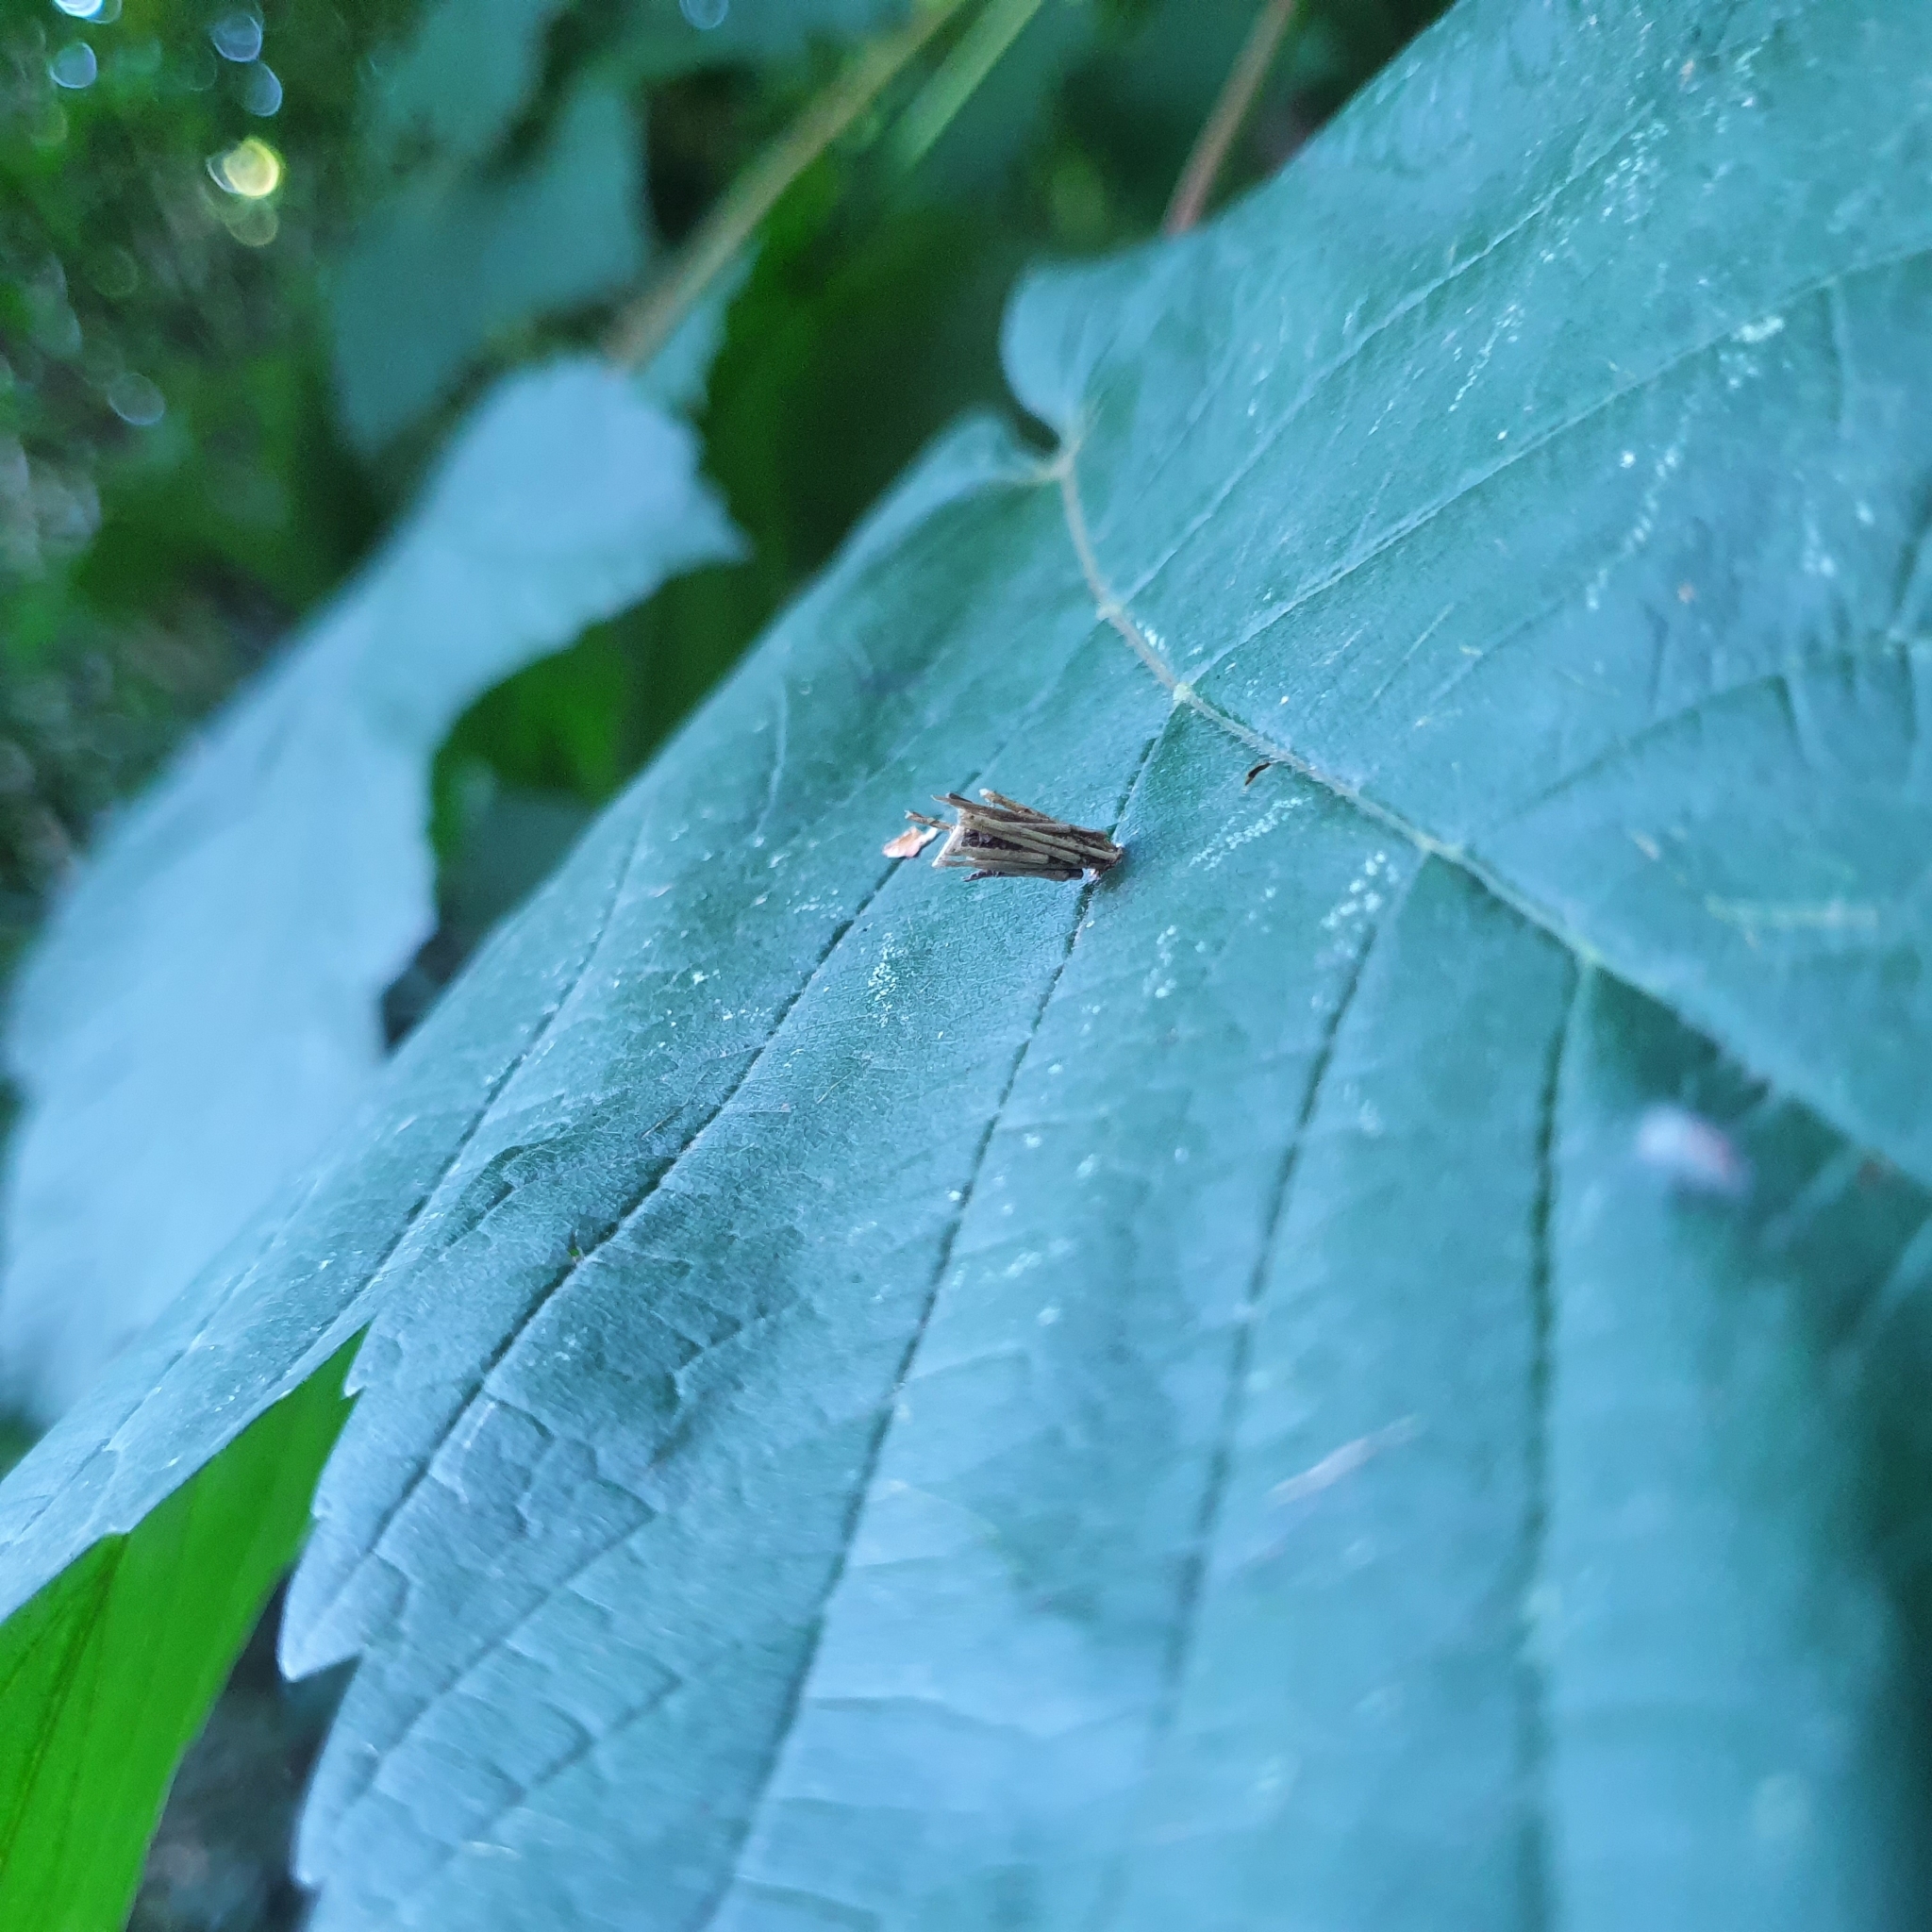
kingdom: Animalia
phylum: Arthropoda
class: Insecta
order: Lepidoptera
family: Psychidae
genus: Psyche
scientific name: Psyche casta
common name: Common sweep
